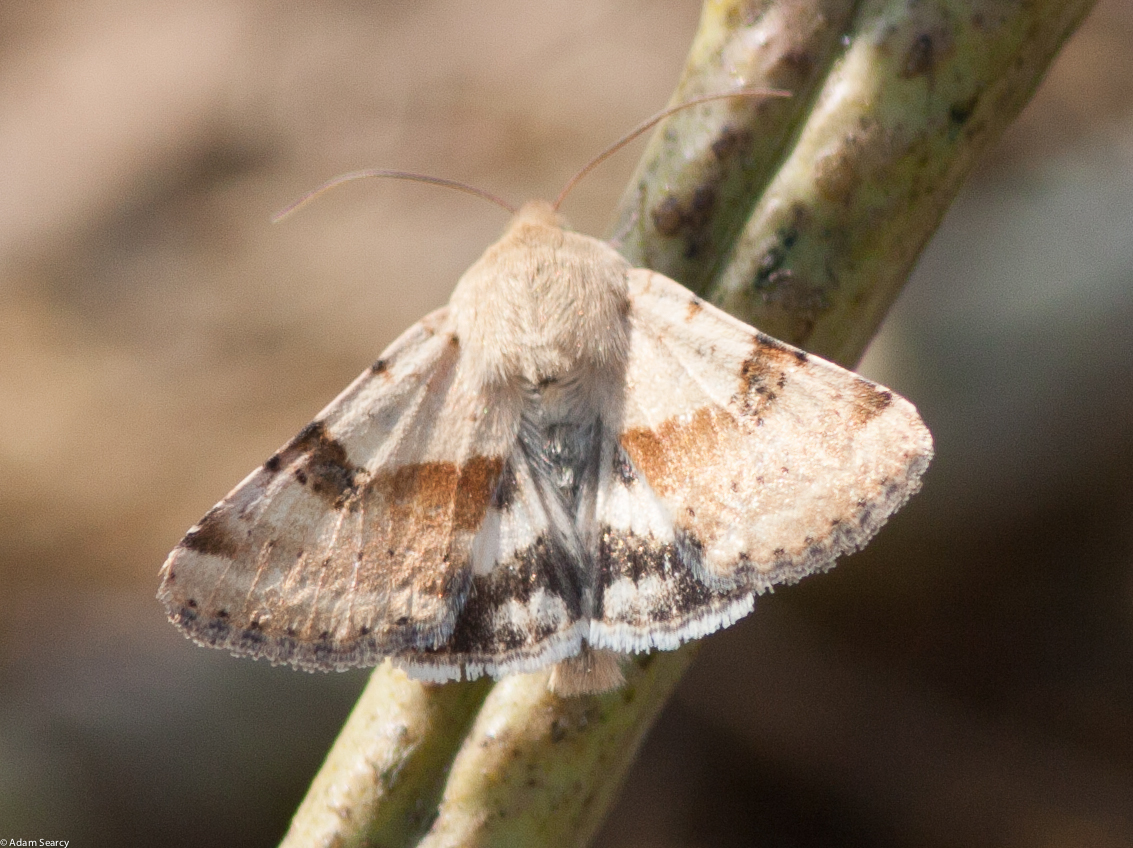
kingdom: Animalia
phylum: Arthropoda
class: Insecta
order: Lepidoptera
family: Noctuidae
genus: Heliothis
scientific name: Heliothis phloxiphaga
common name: Darker spotted straw moth
